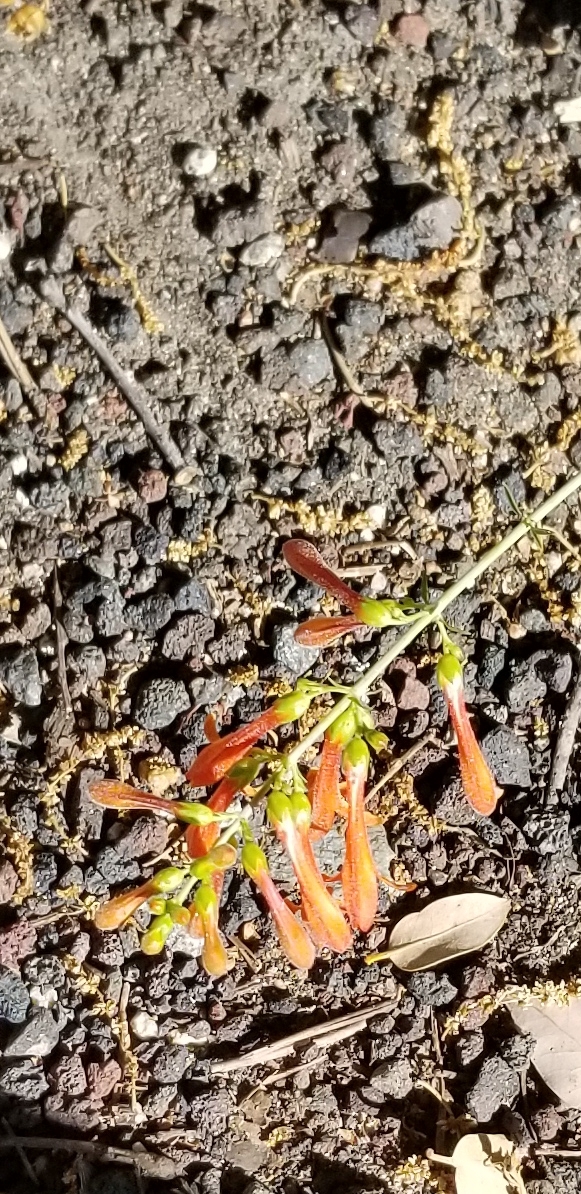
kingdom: Plantae
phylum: Tracheophyta
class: Magnoliopsida
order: Lamiales
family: Plantaginaceae
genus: Keckiella
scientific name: Keckiella ternata
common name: Scarlet keckiella
